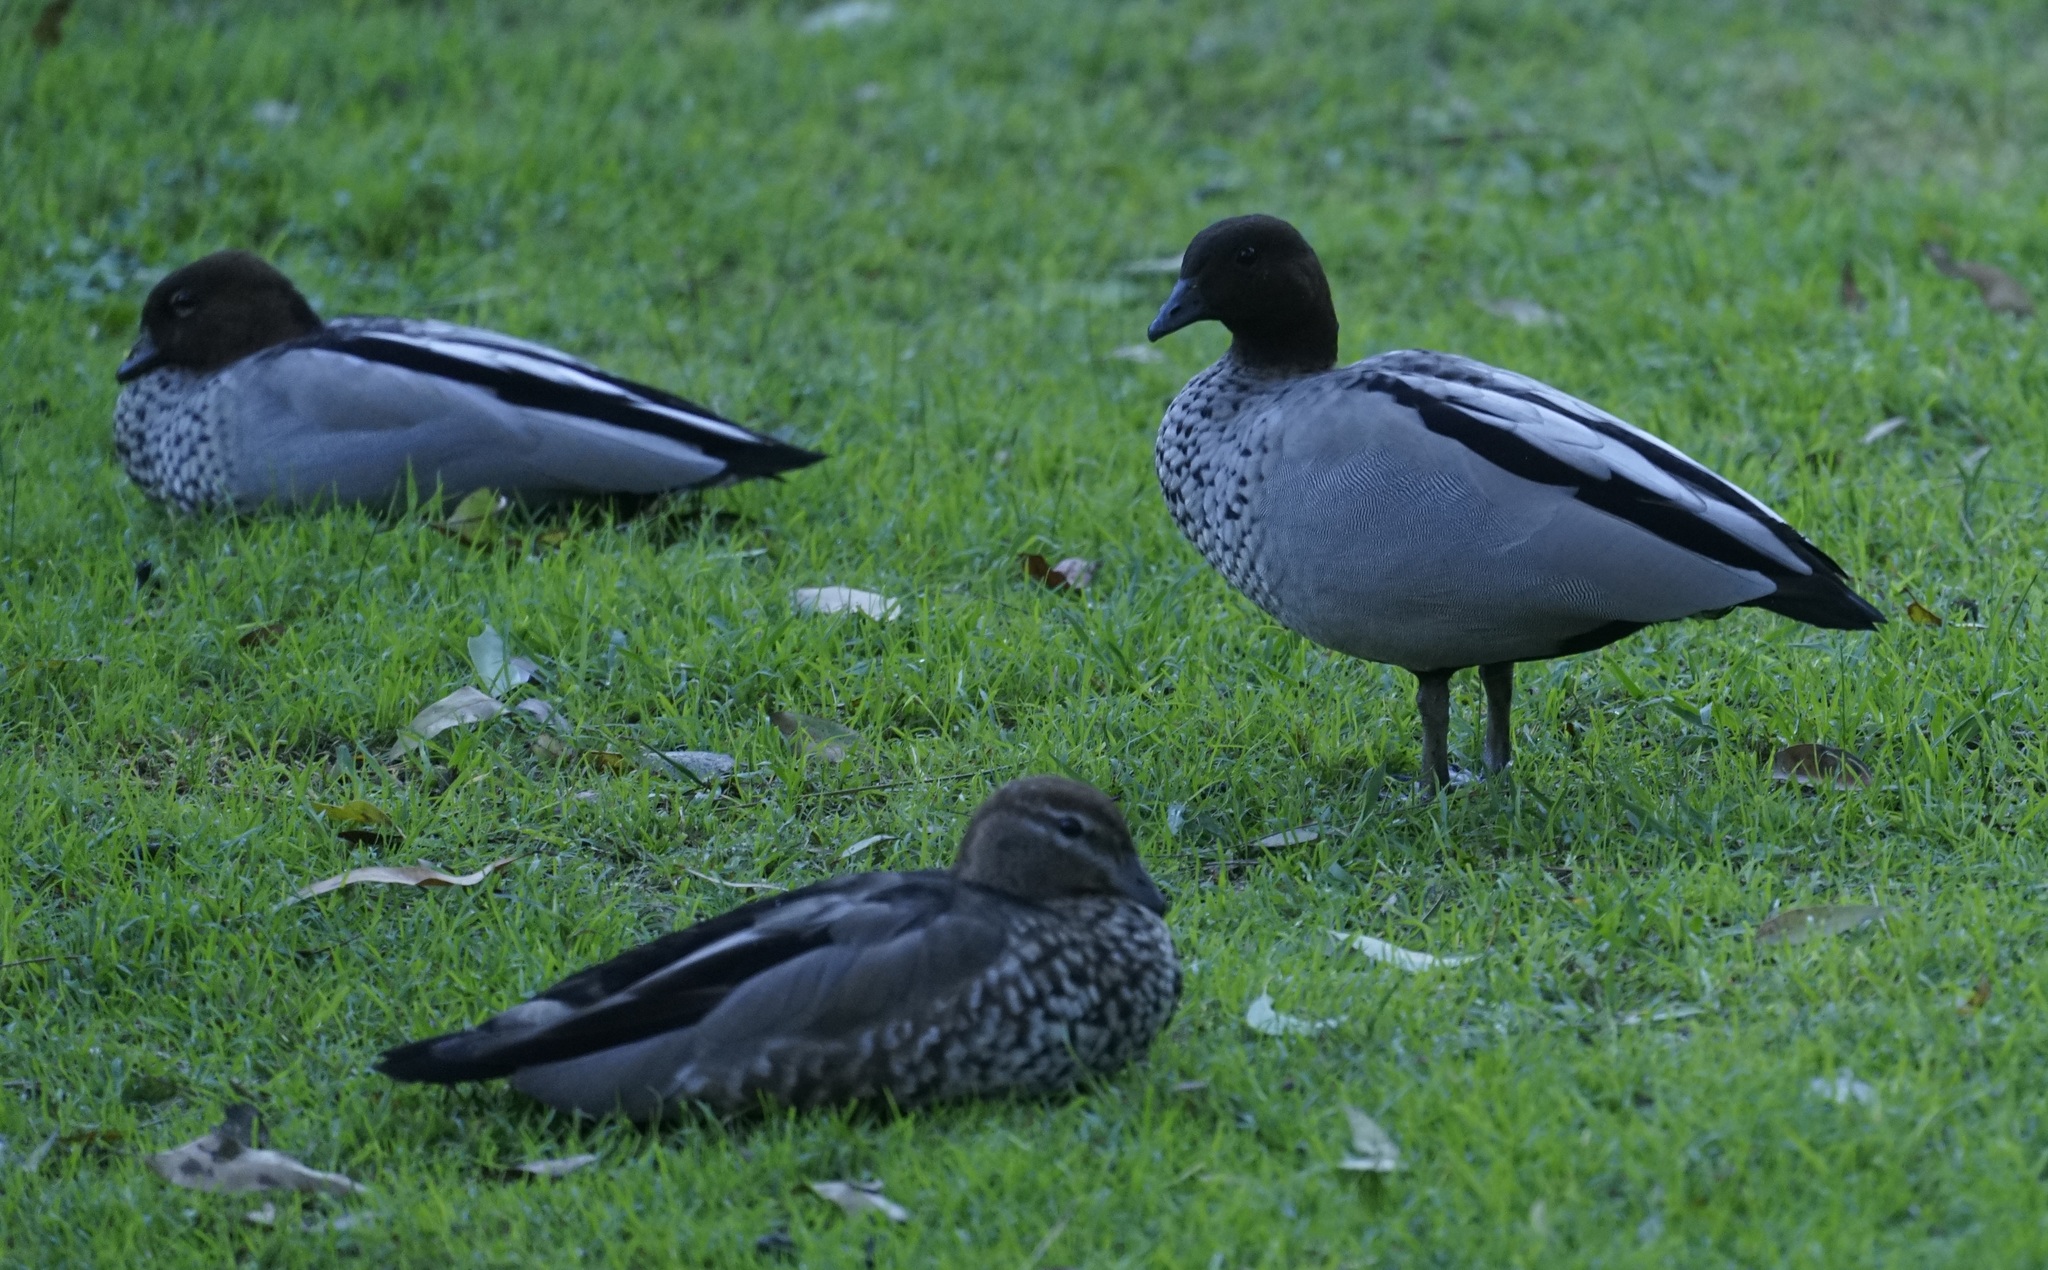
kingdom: Animalia
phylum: Chordata
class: Aves
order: Anseriformes
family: Anatidae
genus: Chenonetta
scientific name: Chenonetta jubata
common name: Maned duck
